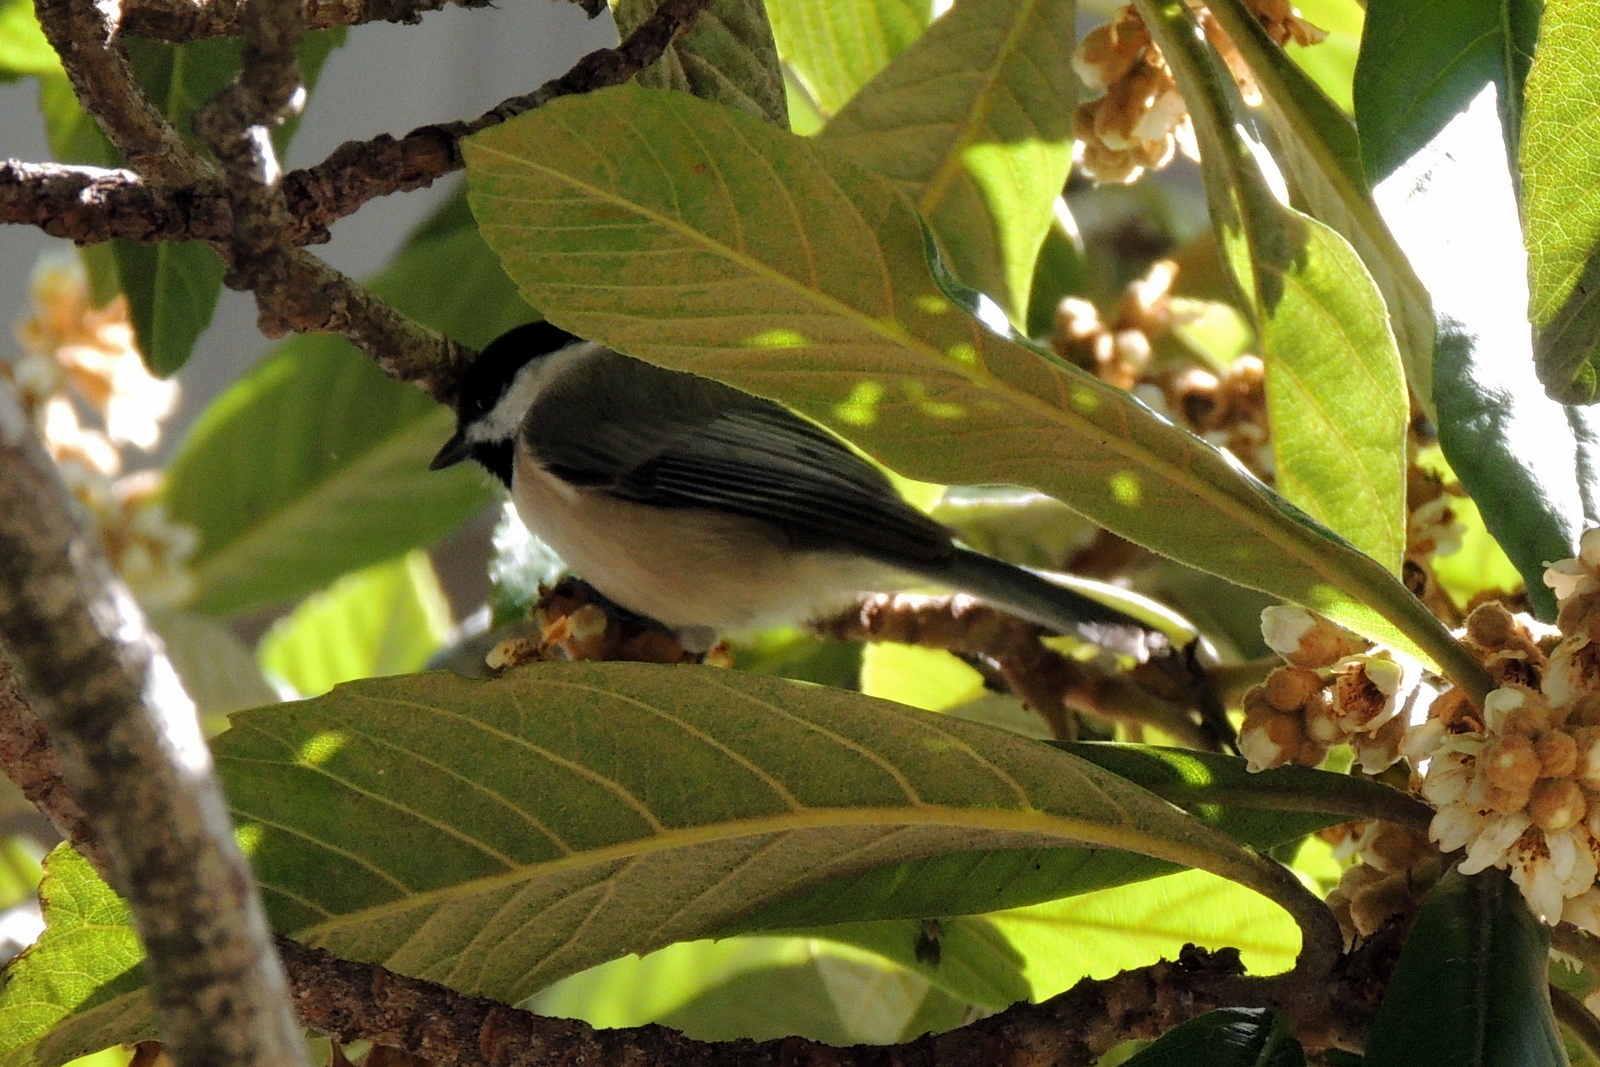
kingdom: Animalia
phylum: Chordata
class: Aves
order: Passeriformes
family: Paridae
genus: Poecile
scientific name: Poecile carolinensis
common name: Carolina chickadee
